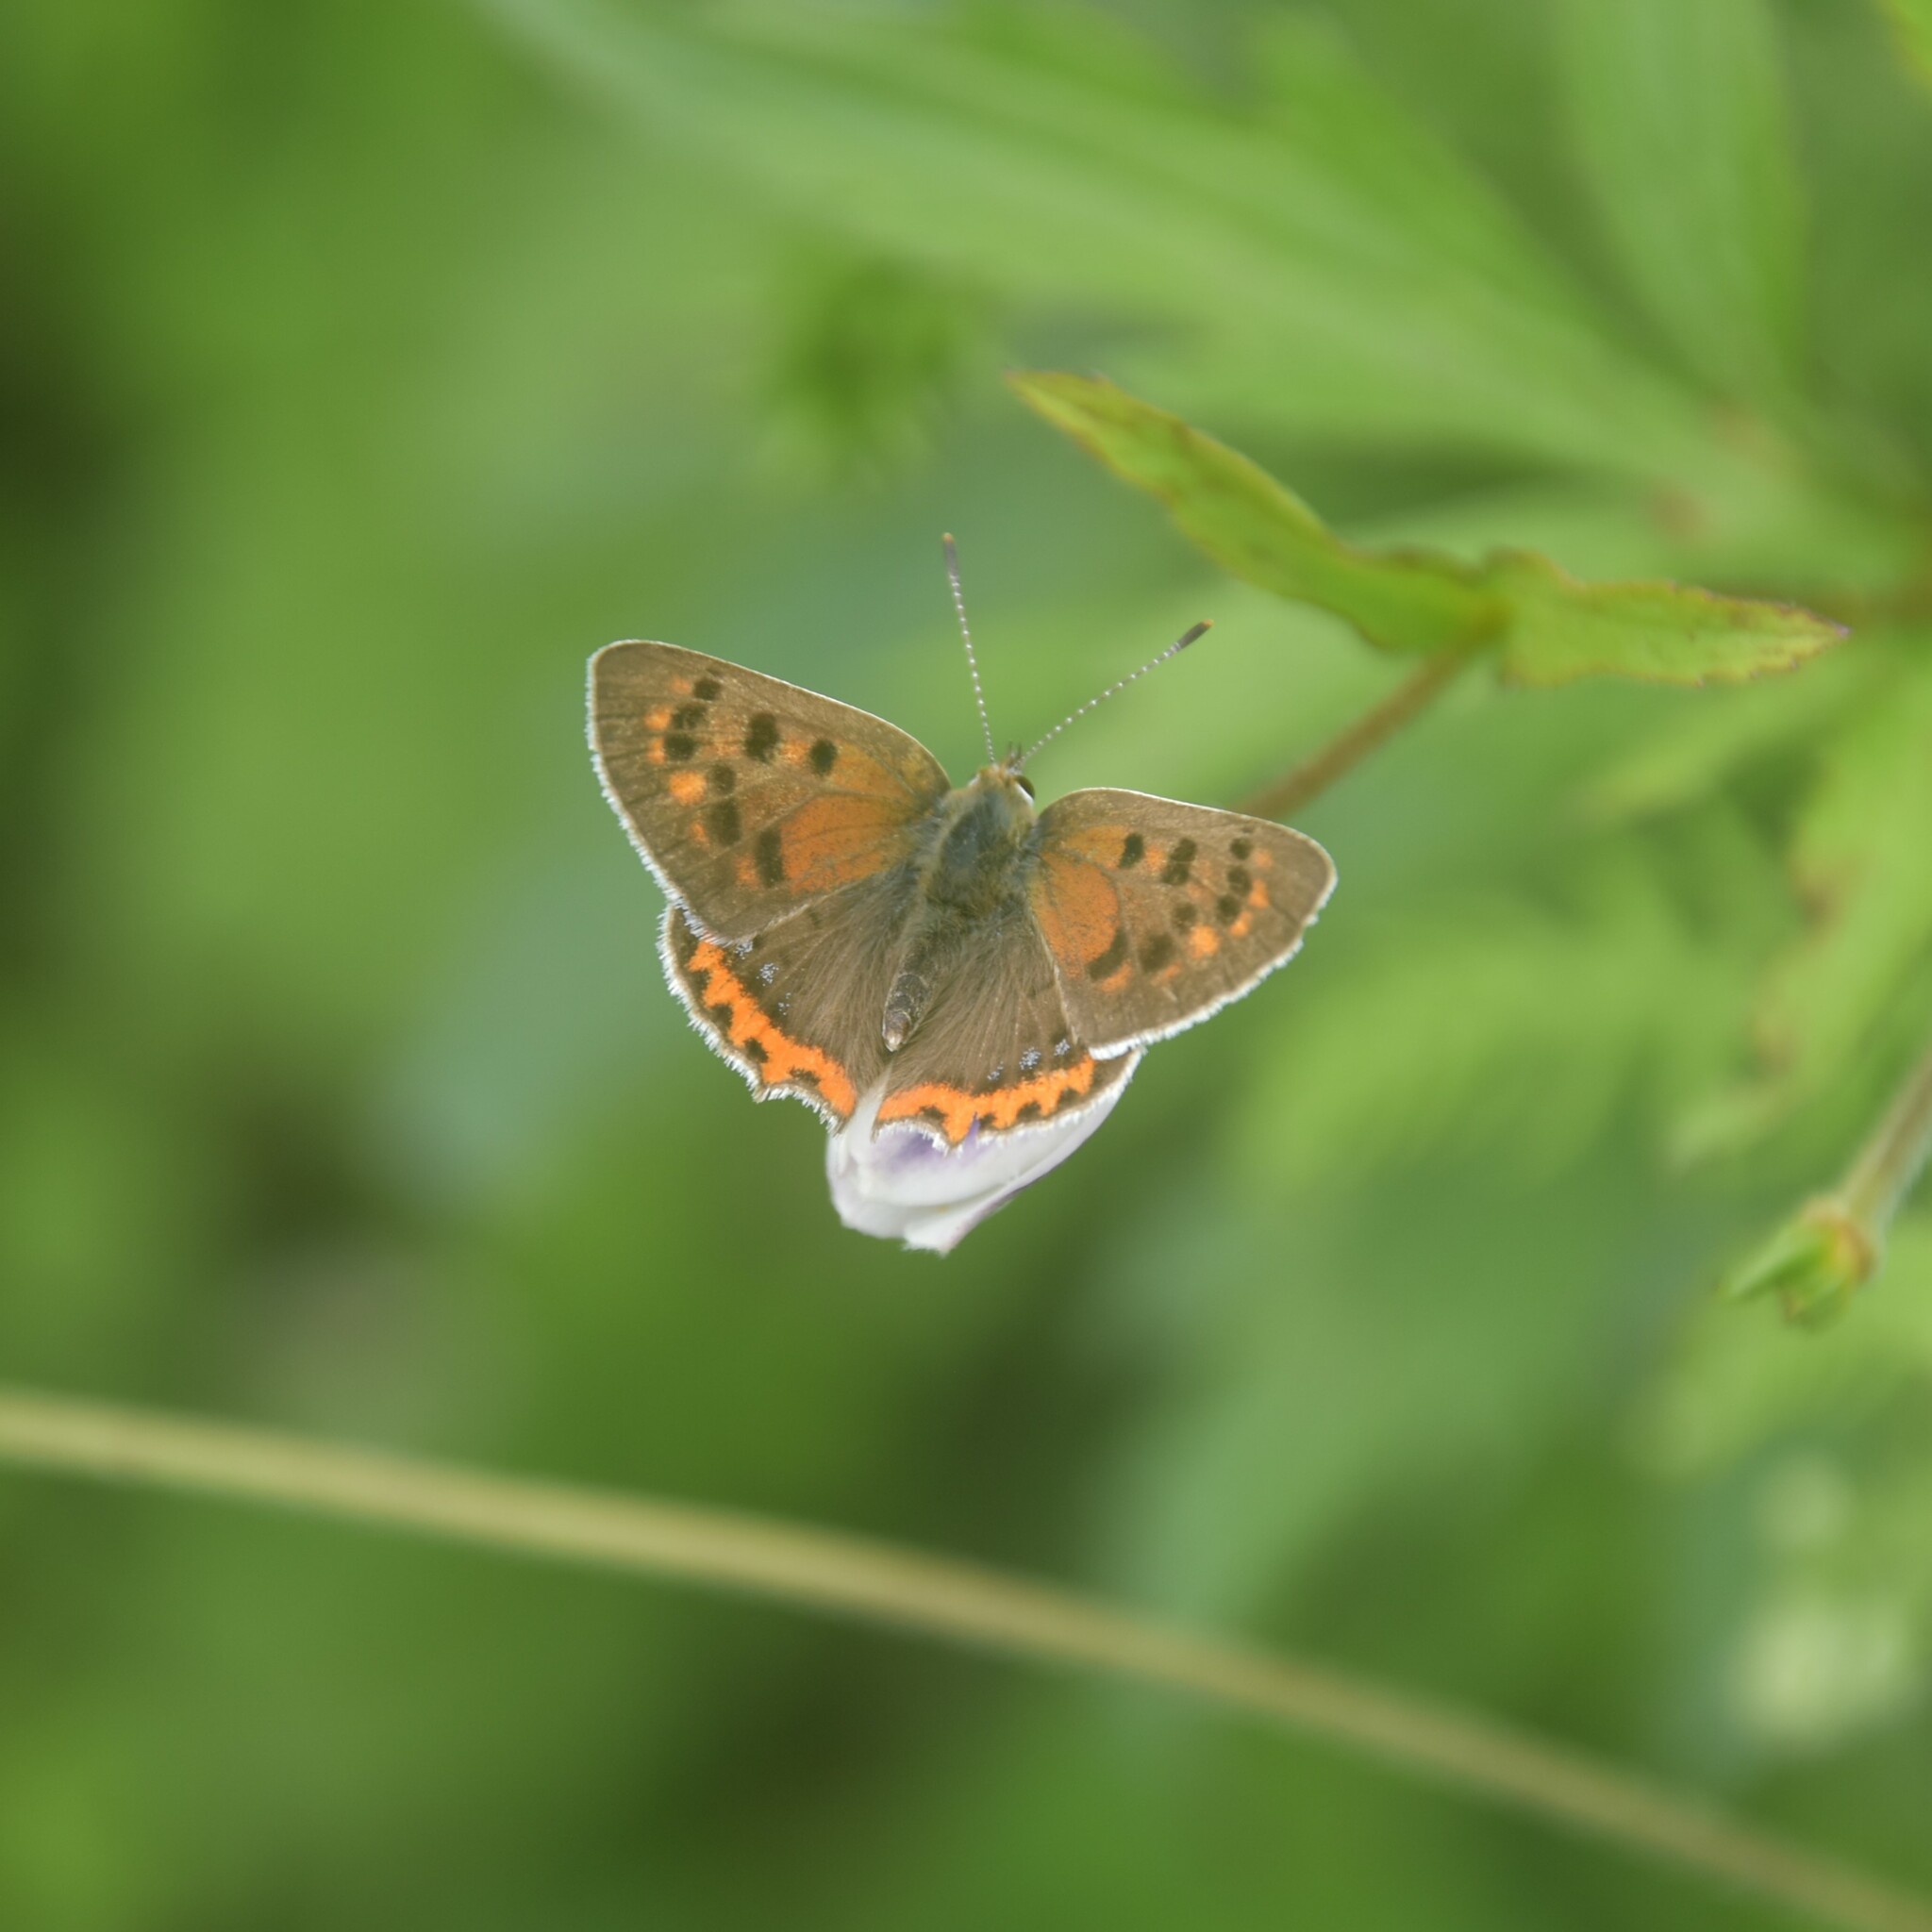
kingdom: Animalia
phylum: Arthropoda
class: Insecta
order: Lepidoptera
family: Lycaenidae
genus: Lycaena
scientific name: Lycaena phlaeas
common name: Small copper
